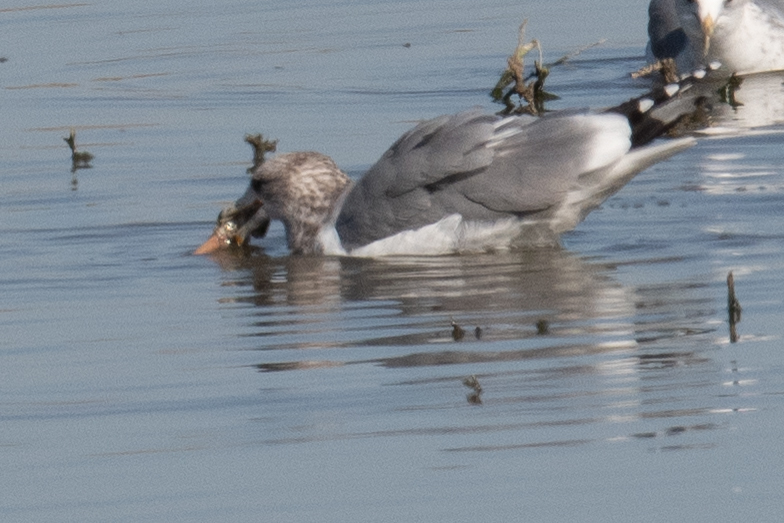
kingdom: Animalia
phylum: Chordata
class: Aves
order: Charadriiformes
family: Laridae
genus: Larus
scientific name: Larus californicus
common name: California gull
